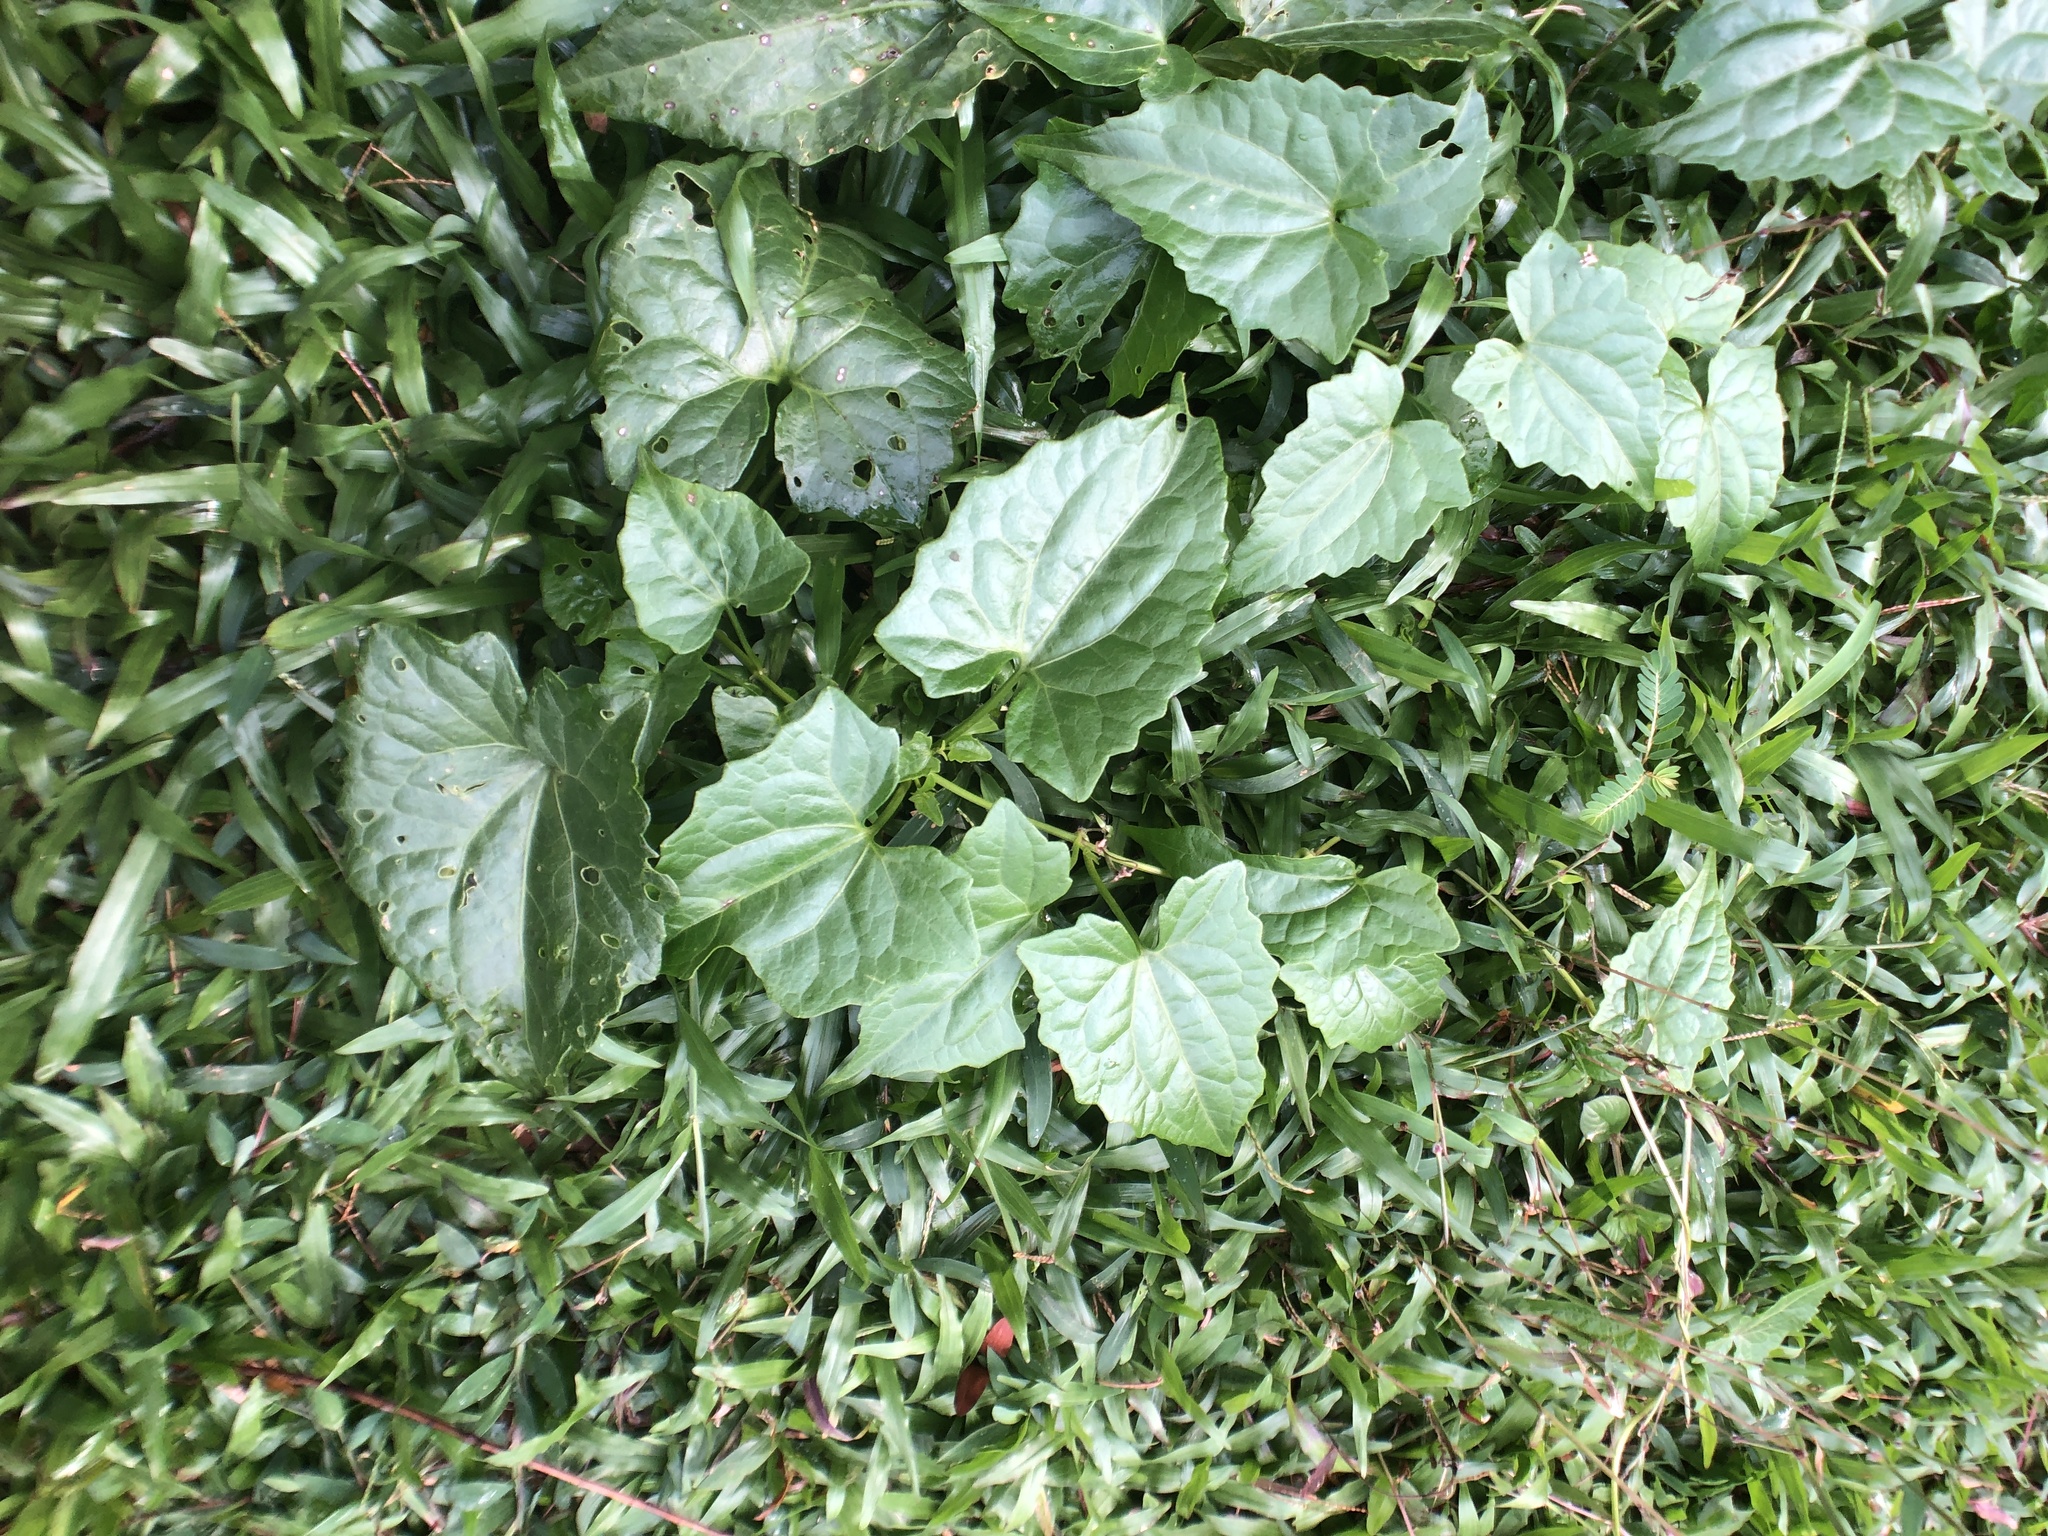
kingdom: Plantae
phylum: Tracheophyta
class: Magnoliopsida
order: Asterales
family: Asteraceae
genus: Mikania
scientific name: Mikania micrantha
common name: Mile-a-minute
